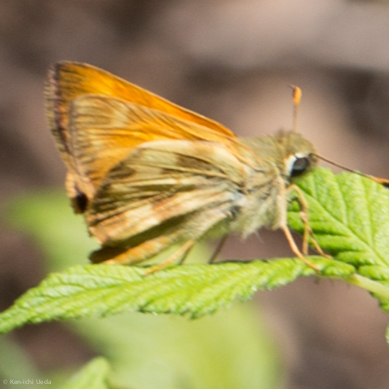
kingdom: Animalia
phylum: Arthropoda
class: Insecta
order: Lepidoptera
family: Hesperiidae
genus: Lon
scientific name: Lon taxiles
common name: Taxiles skipper
